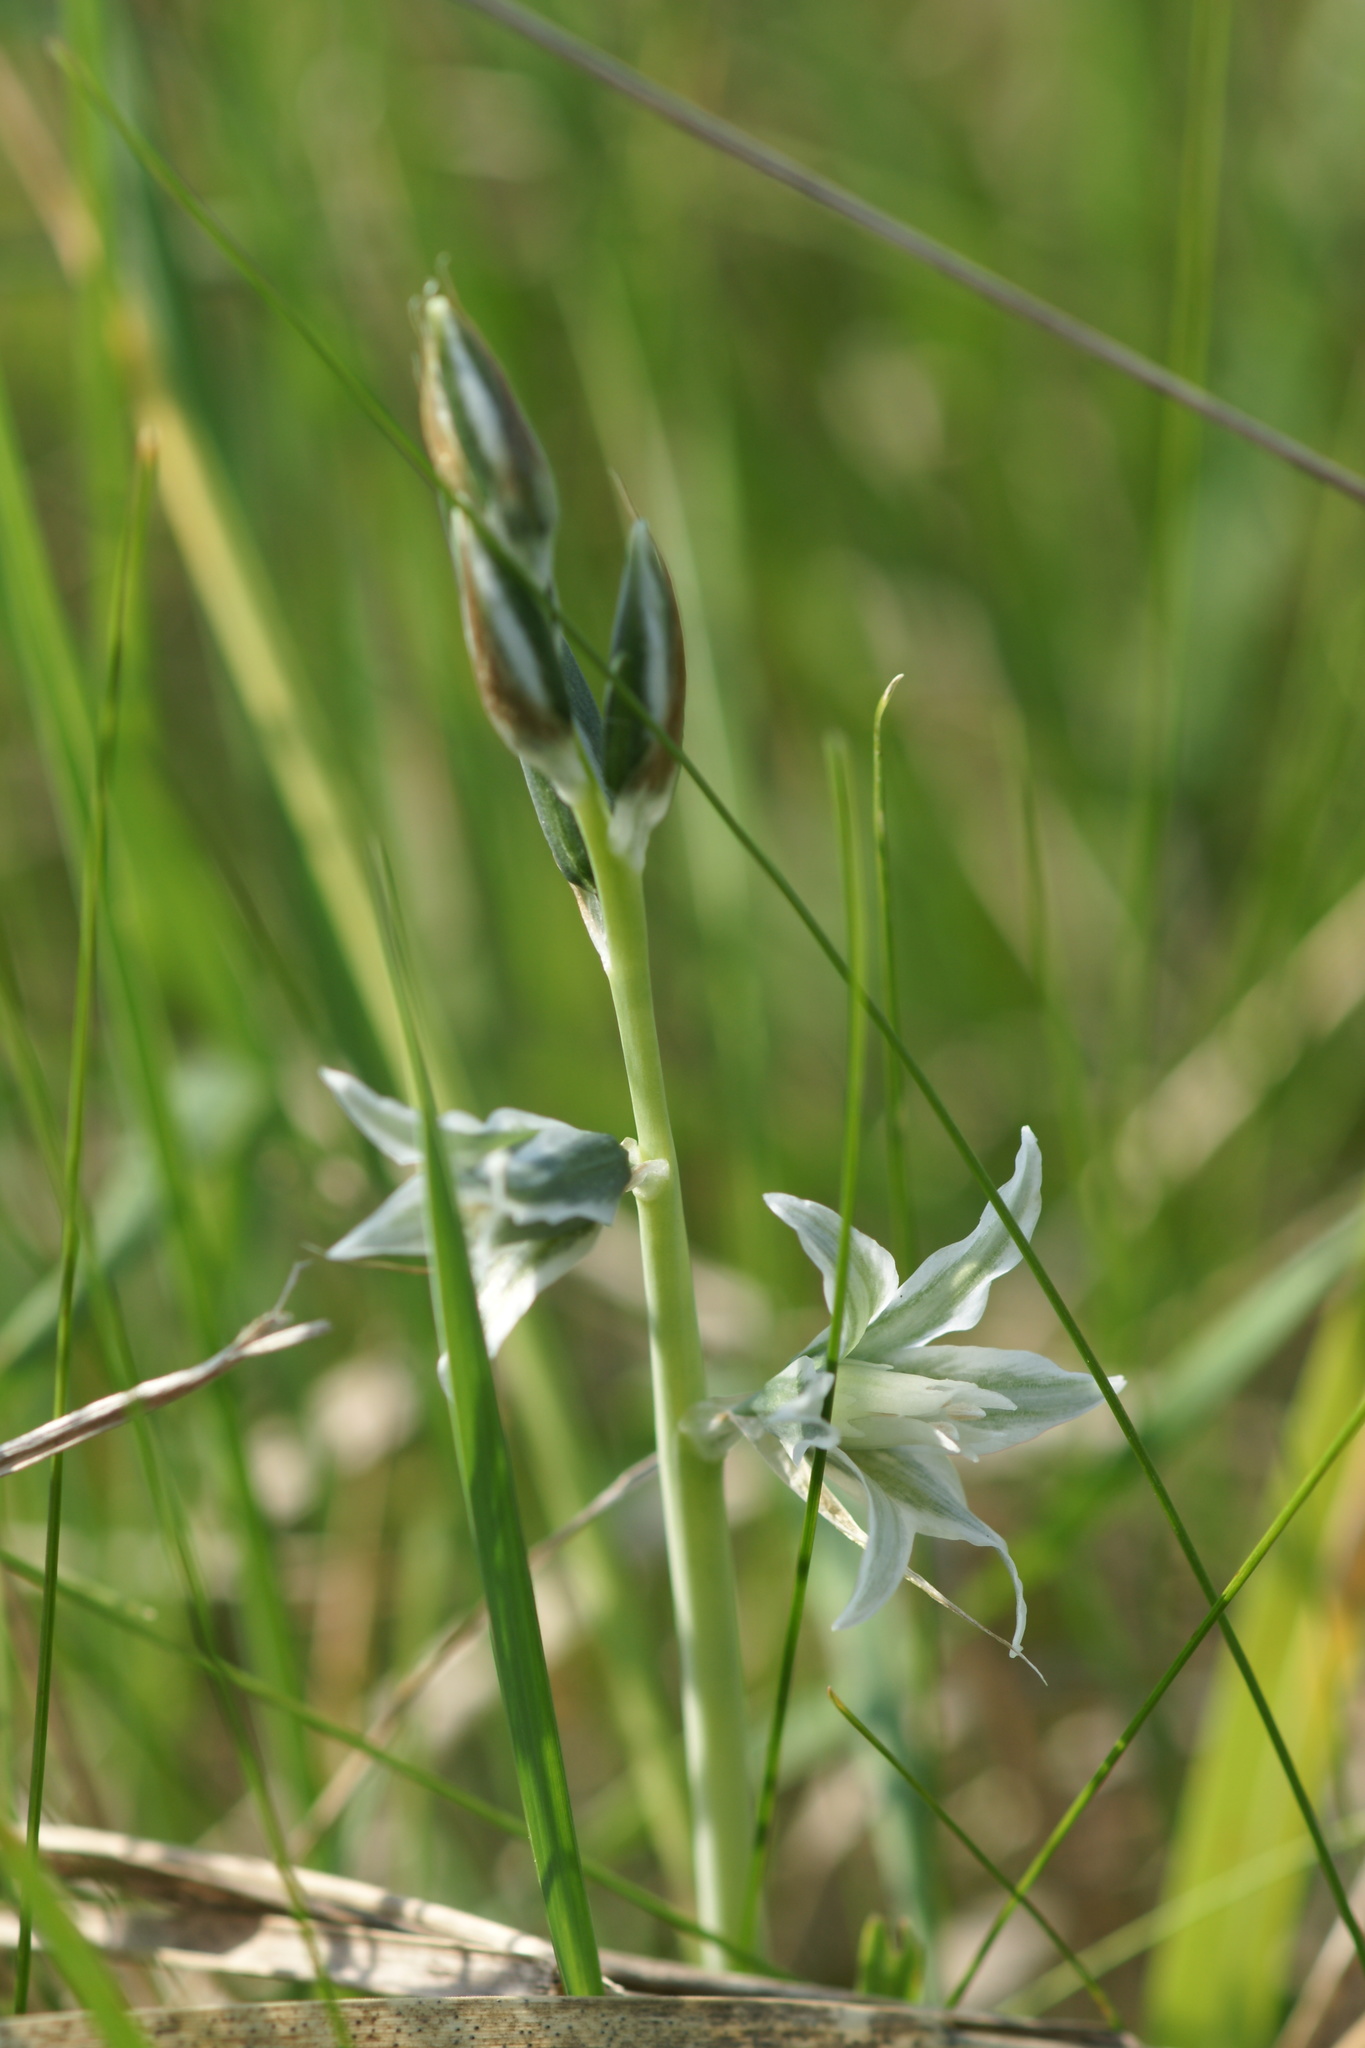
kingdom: Plantae
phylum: Tracheophyta
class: Liliopsida
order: Asparagales
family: Asparagaceae
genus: Ornithogalum
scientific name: Ornithogalum boucheanum
